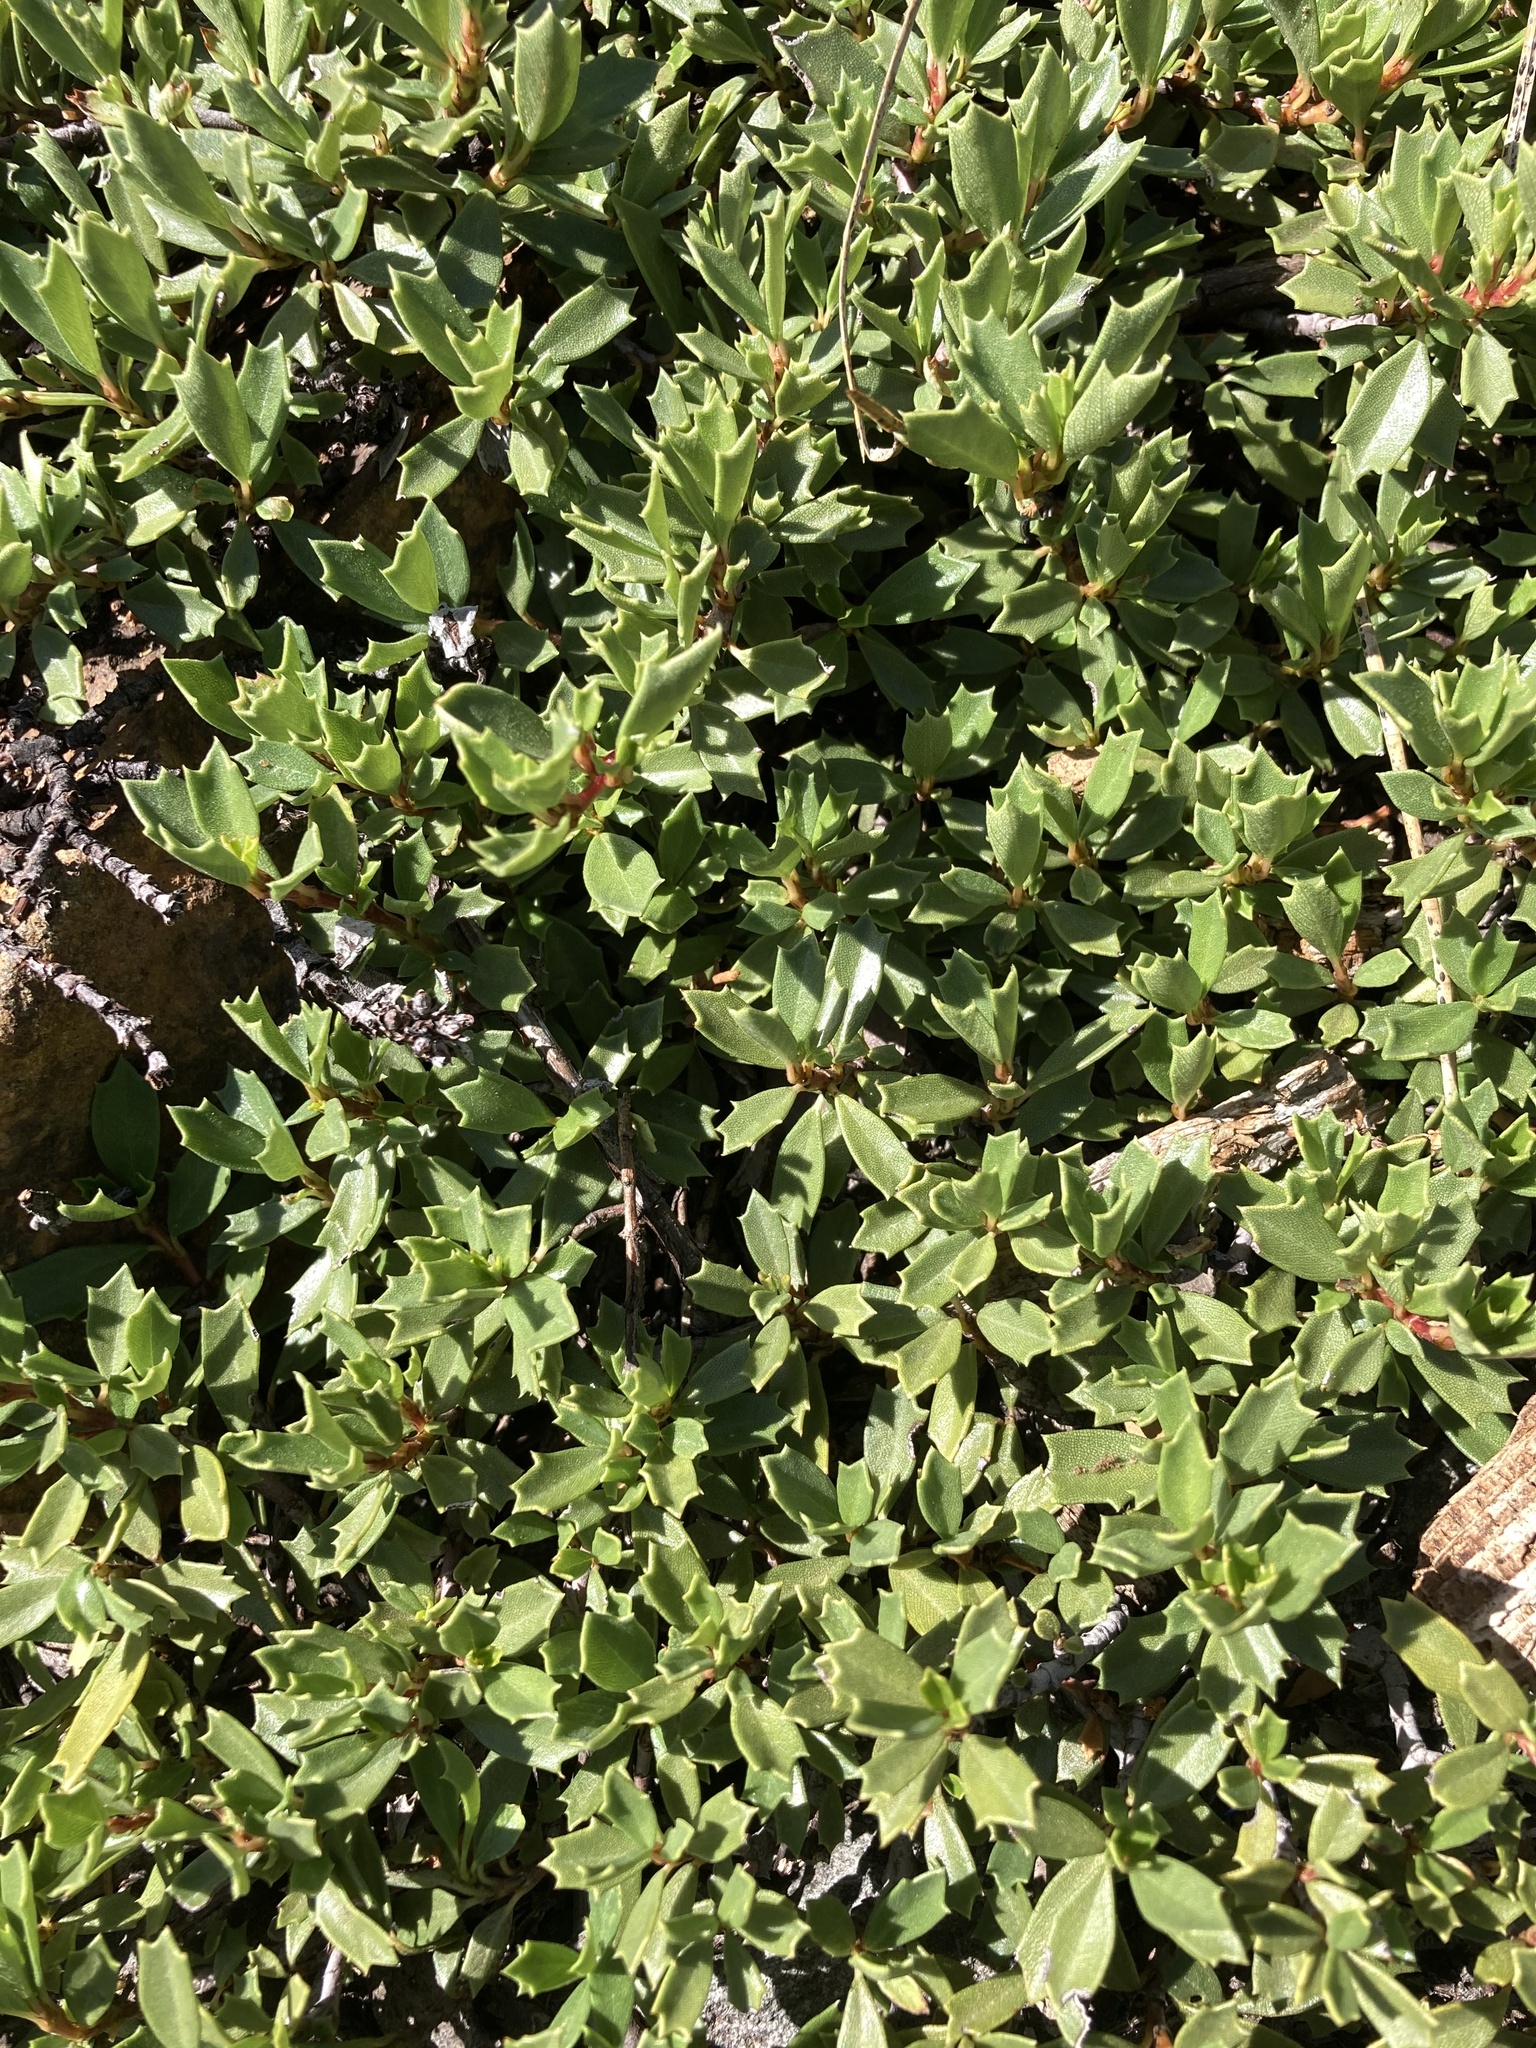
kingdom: Plantae
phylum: Tracheophyta
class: Magnoliopsida
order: Rosales
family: Rhamnaceae
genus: Ceanothus
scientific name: Ceanothus prostratus
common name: Mahala-mat
